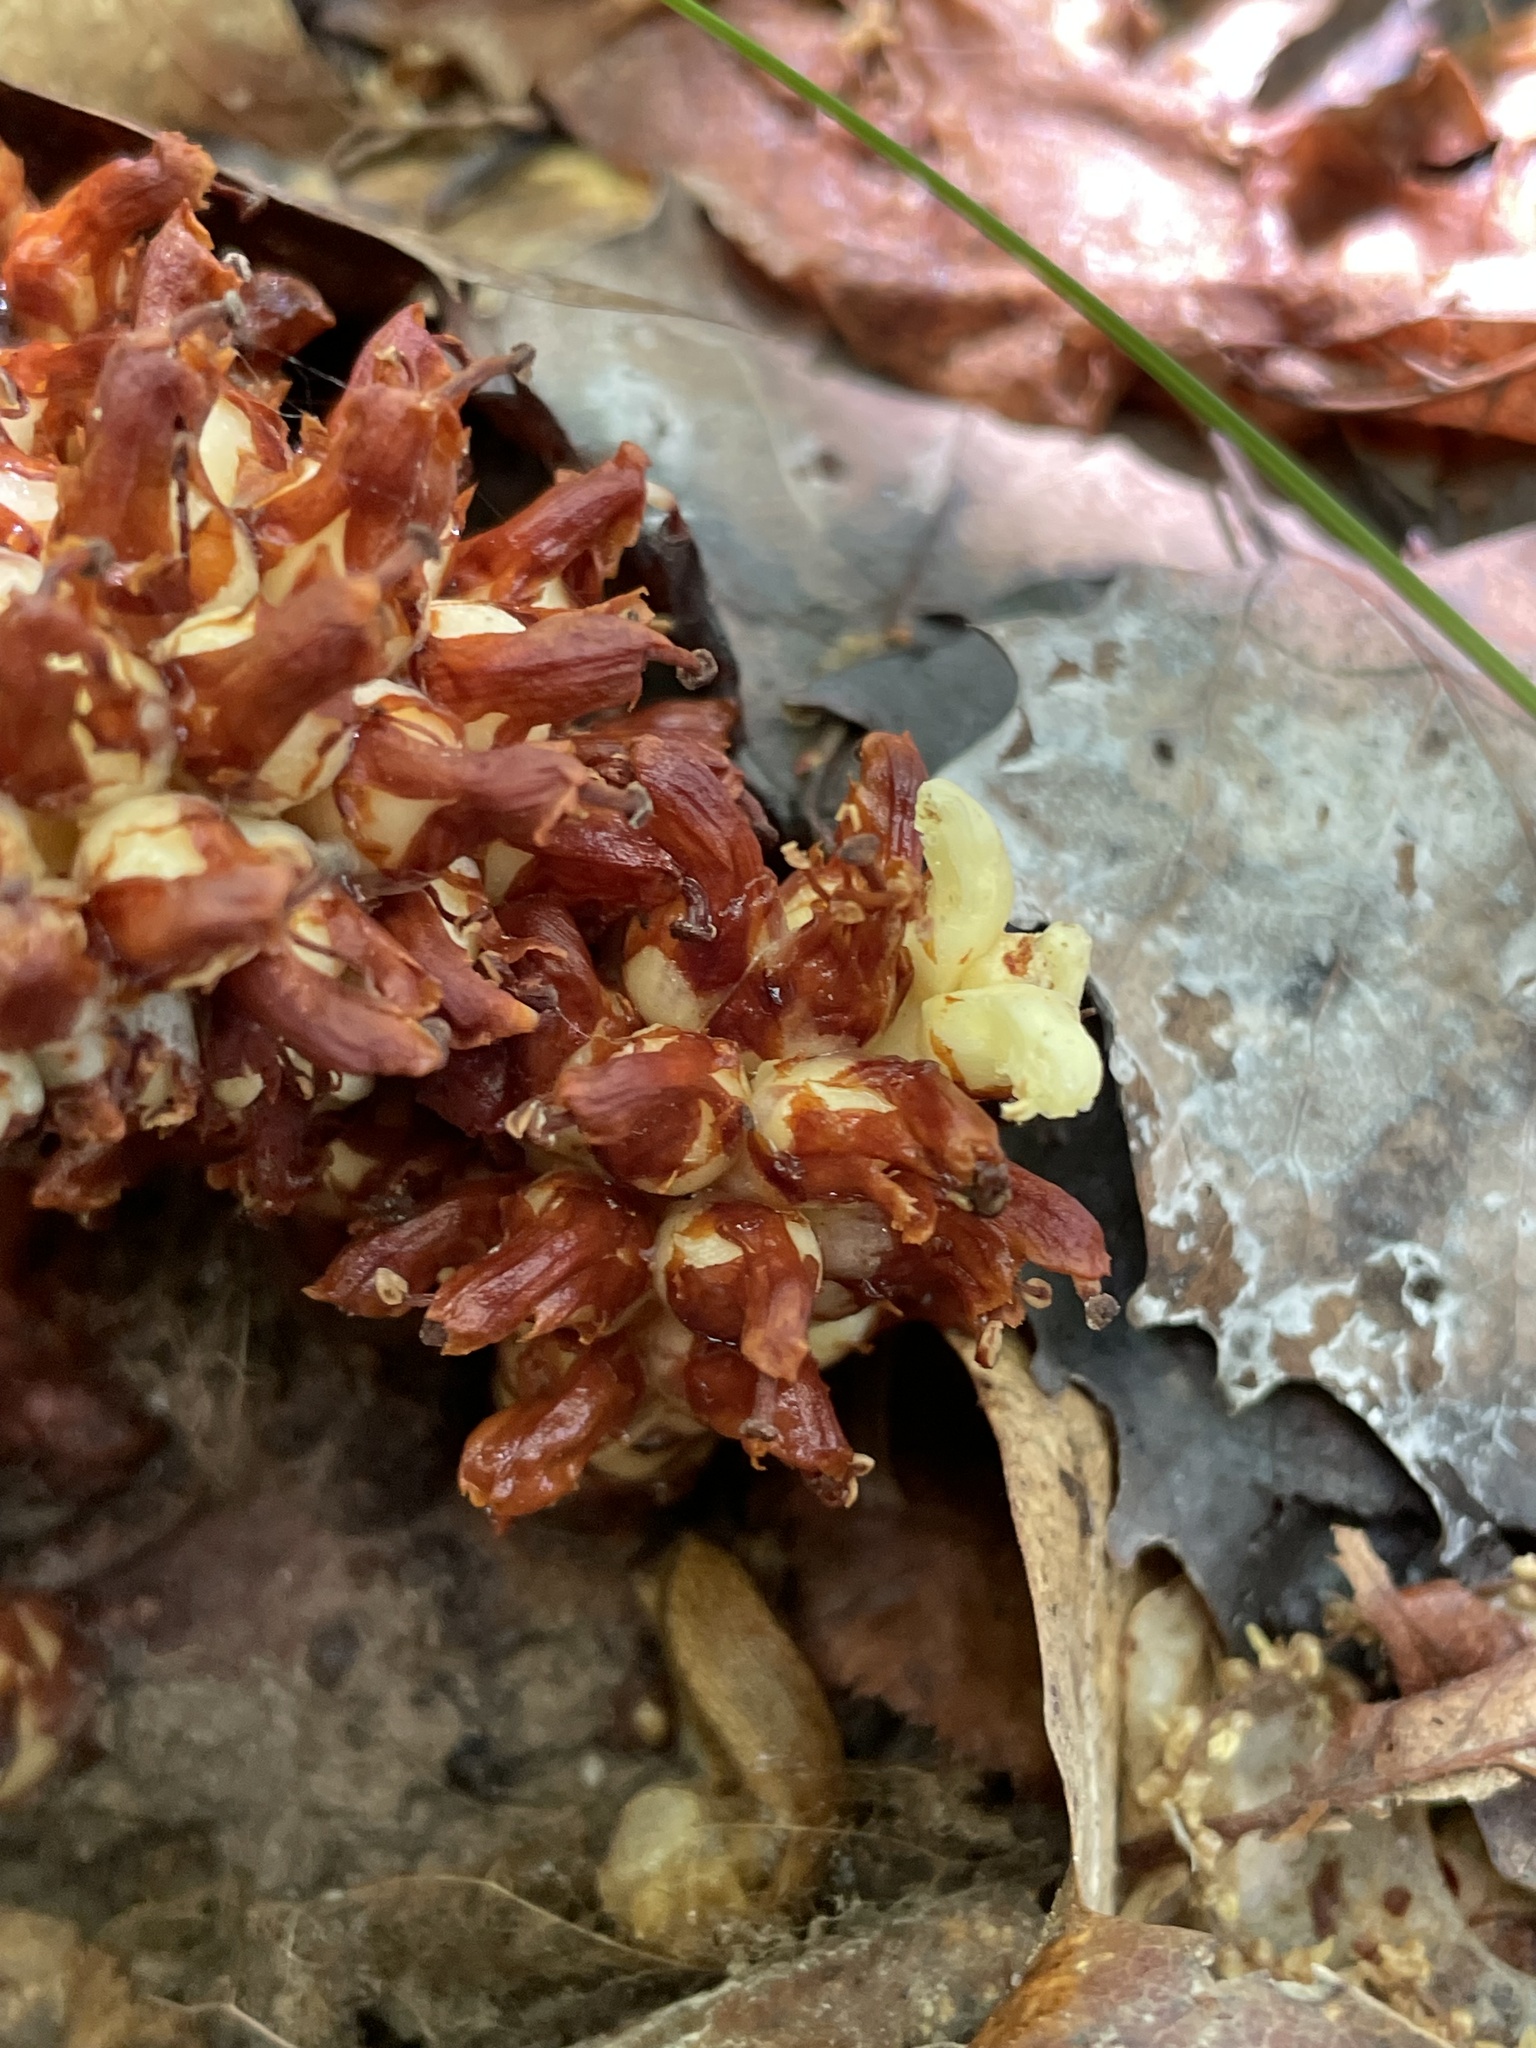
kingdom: Plantae
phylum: Tracheophyta
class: Magnoliopsida
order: Lamiales
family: Orobanchaceae
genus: Conopholis
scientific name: Conopholis americana
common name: American cancer-root
